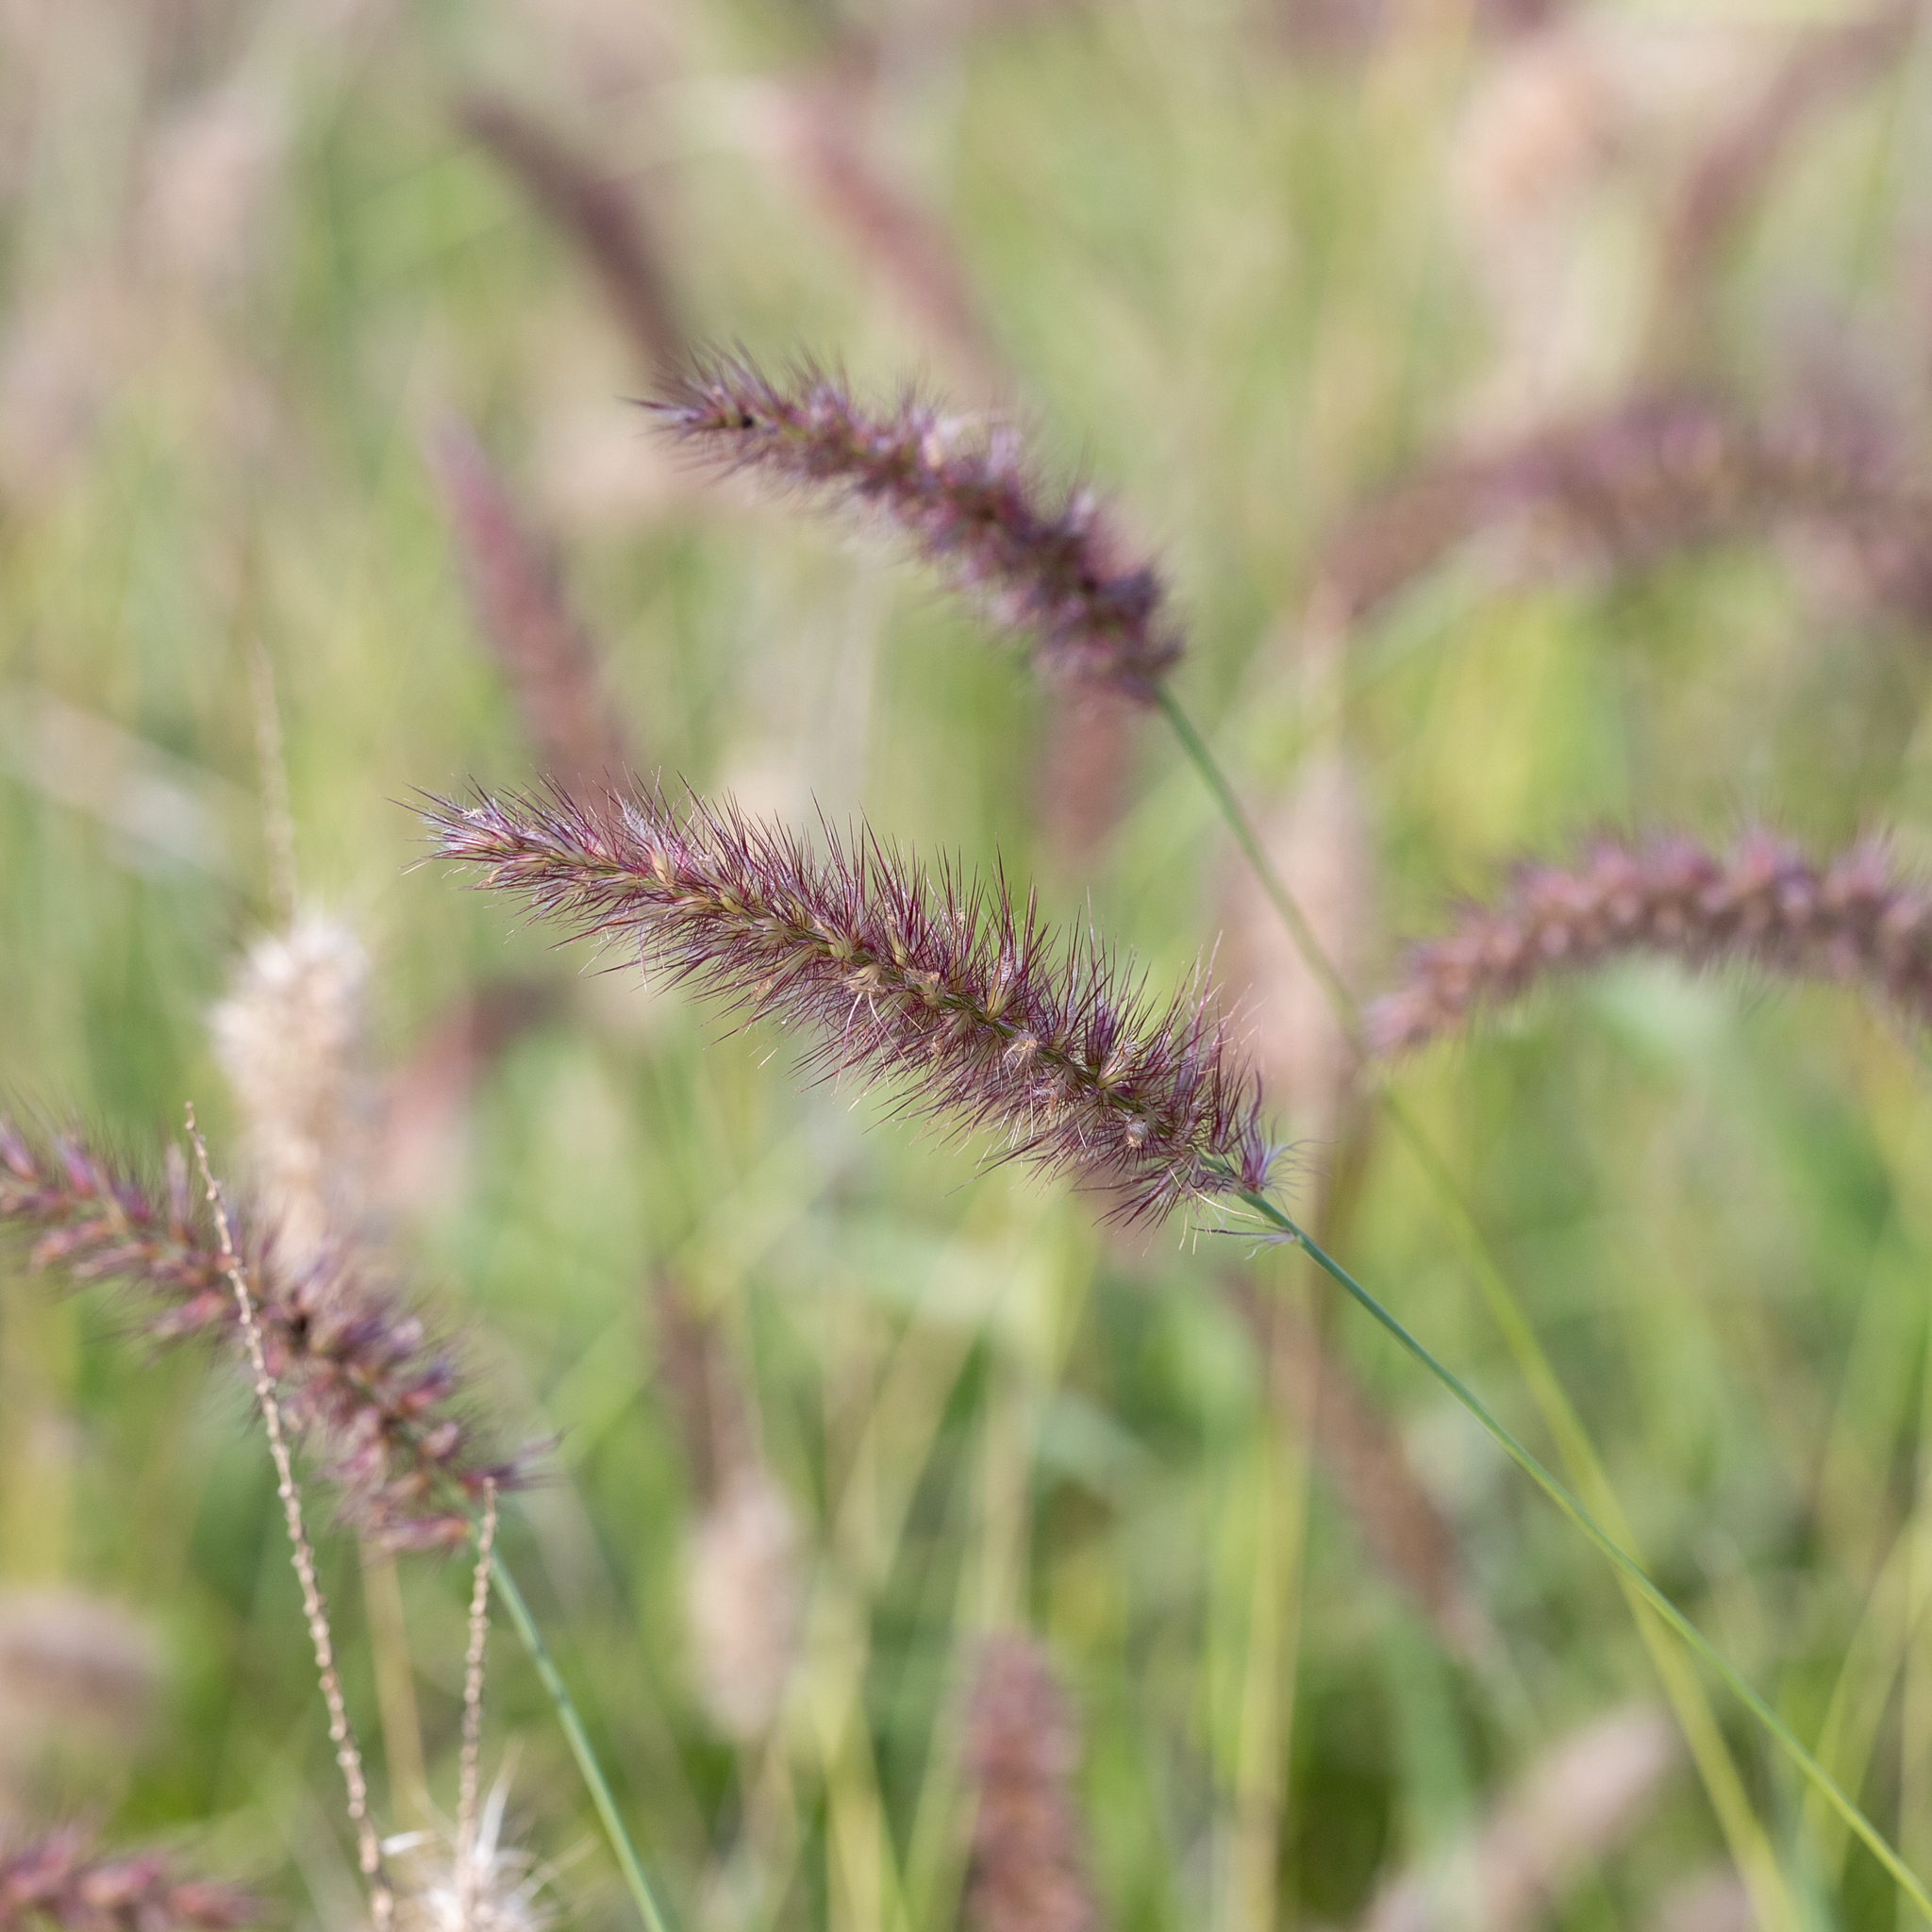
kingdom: Plantae
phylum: Tracheophyta
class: Liliopsida
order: Poales
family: Poaceae
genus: Cenchrus
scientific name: Cenchrus ciliaris
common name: Buffelgrass
